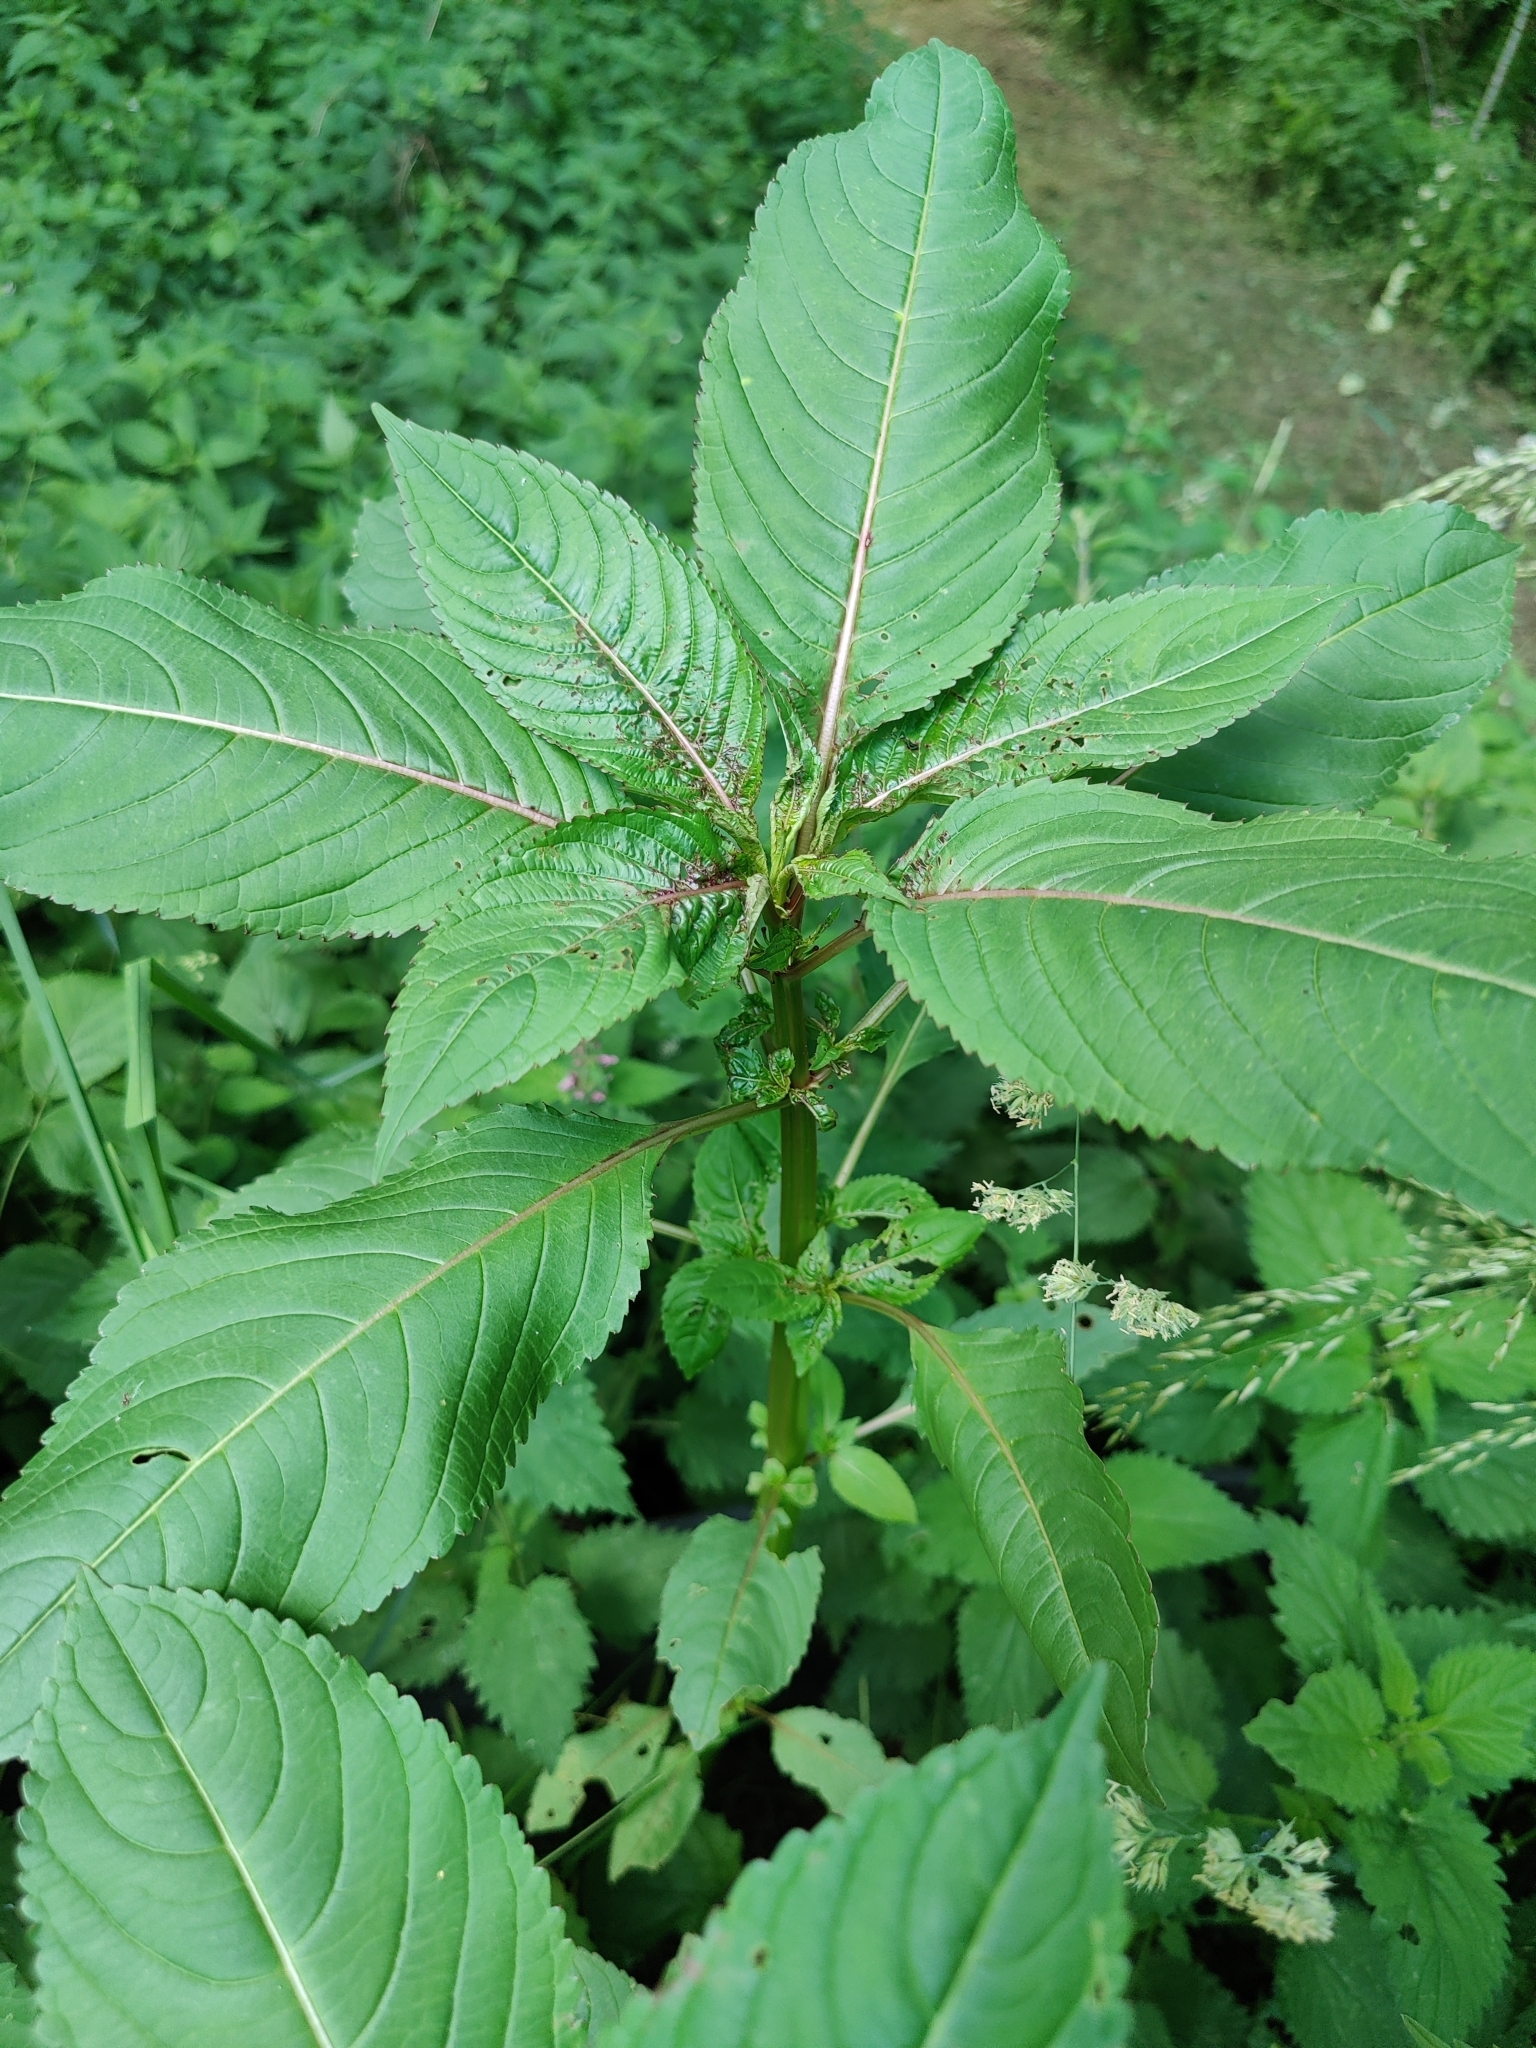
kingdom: Plantae
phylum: Tracheophyta
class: Magnoliopsida
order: Ericales
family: Balsaminaceae
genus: Impatiens
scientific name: Impatiens glandulifera
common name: Himalayan balsam
